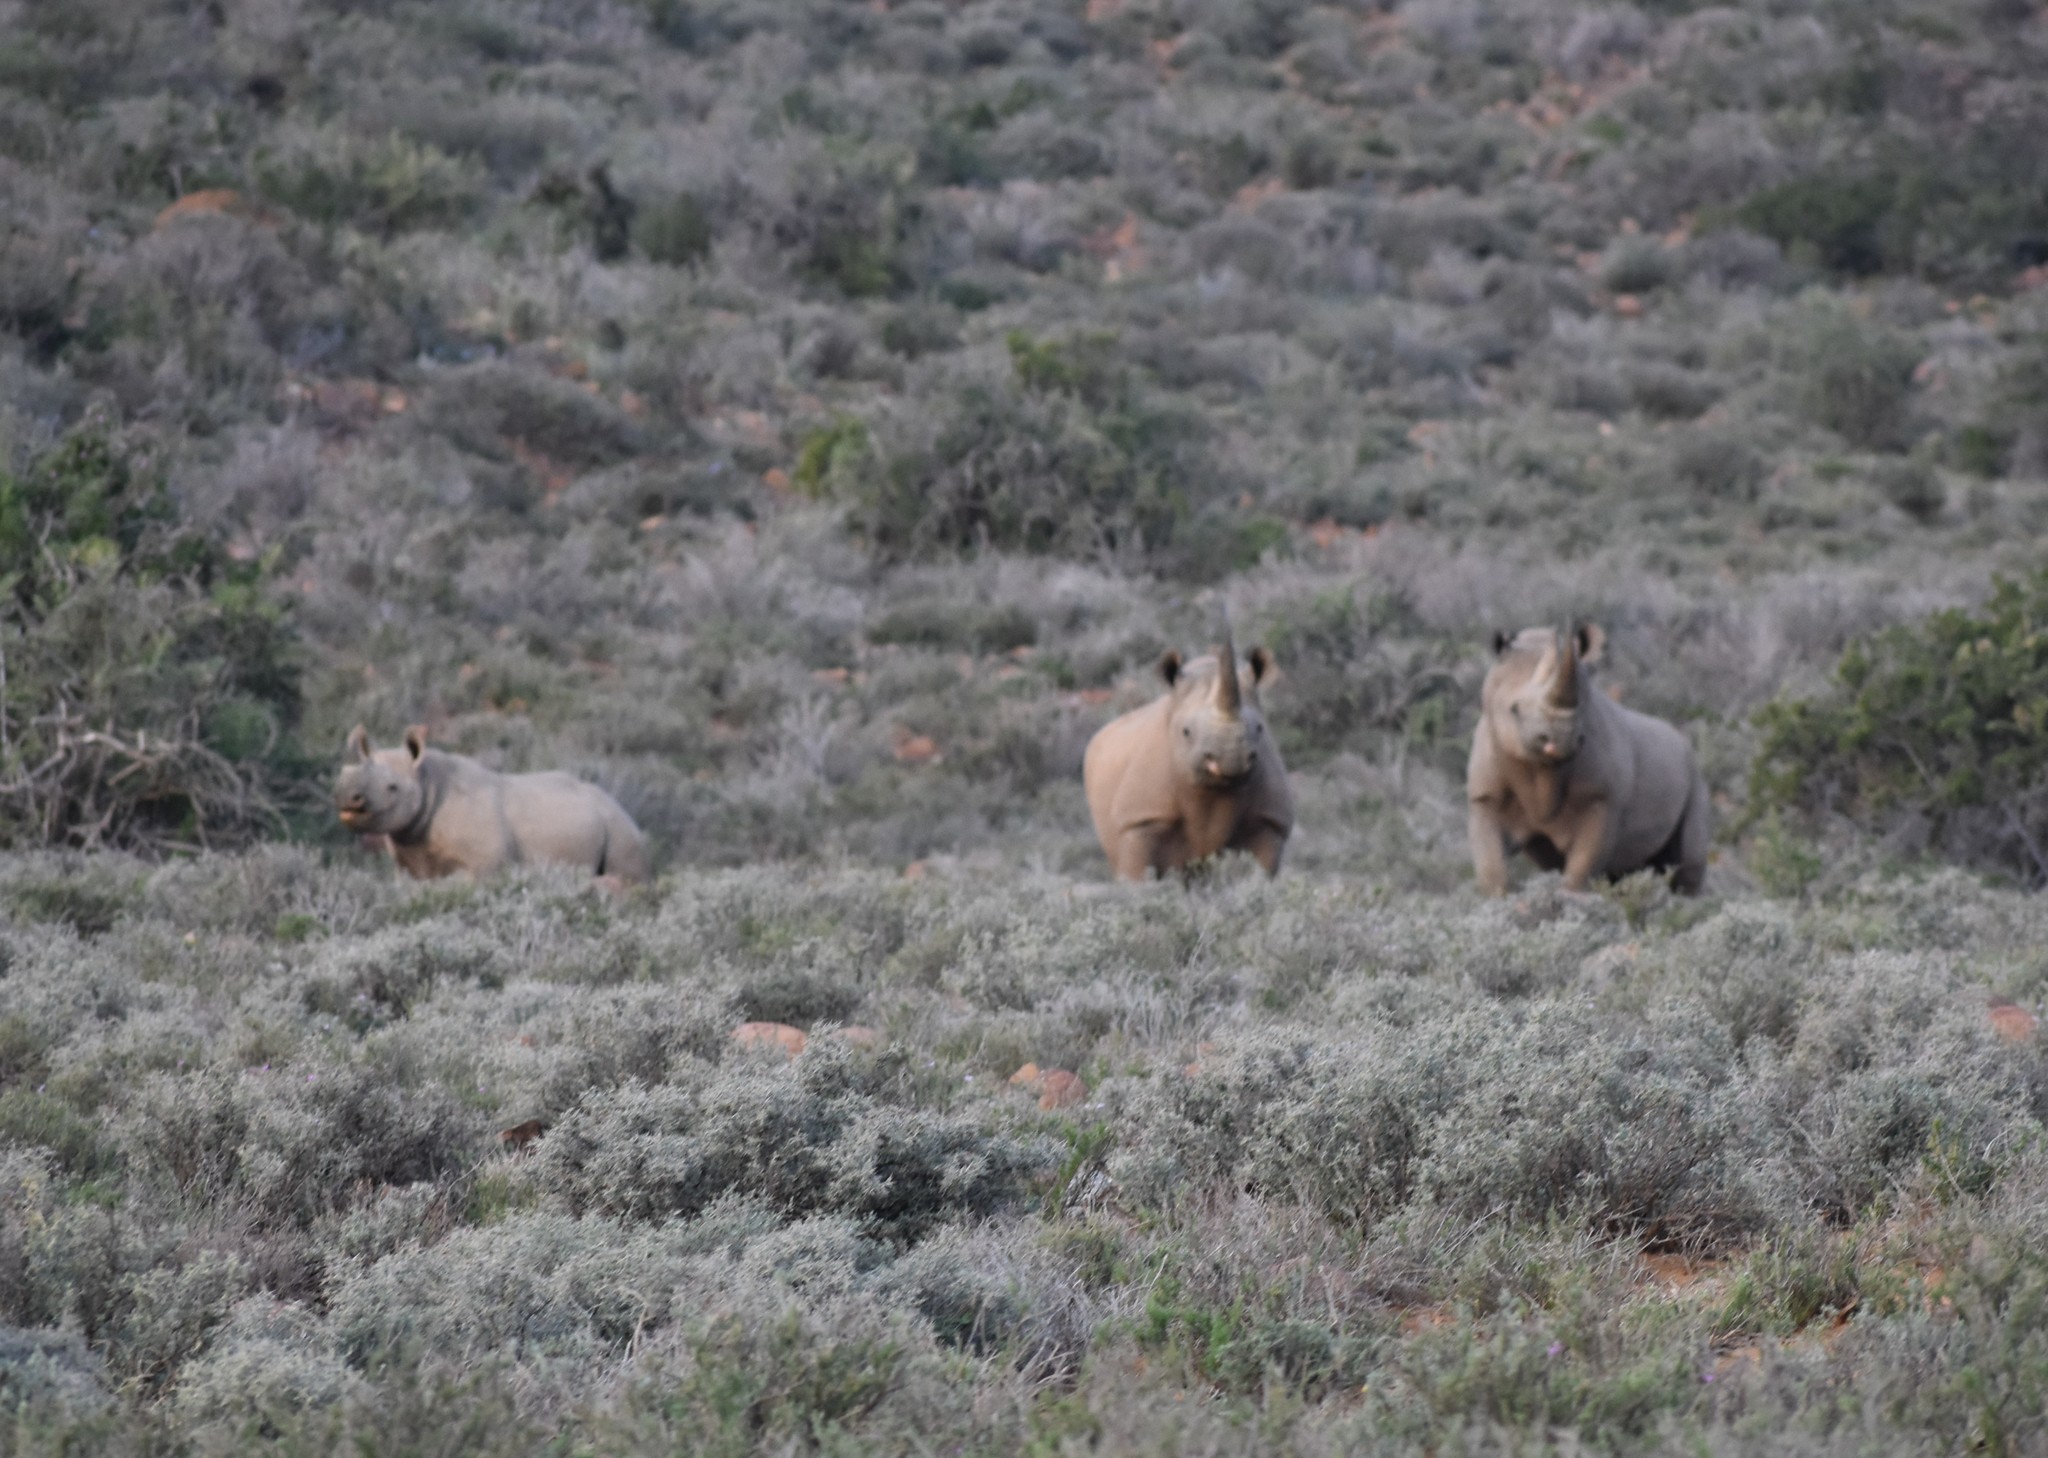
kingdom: Animalia
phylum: Chordata
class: Mammalia
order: Perissodactyla
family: Rhinocerotidae
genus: Diceros
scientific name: Diceros bicornis
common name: Black rhinoceros
